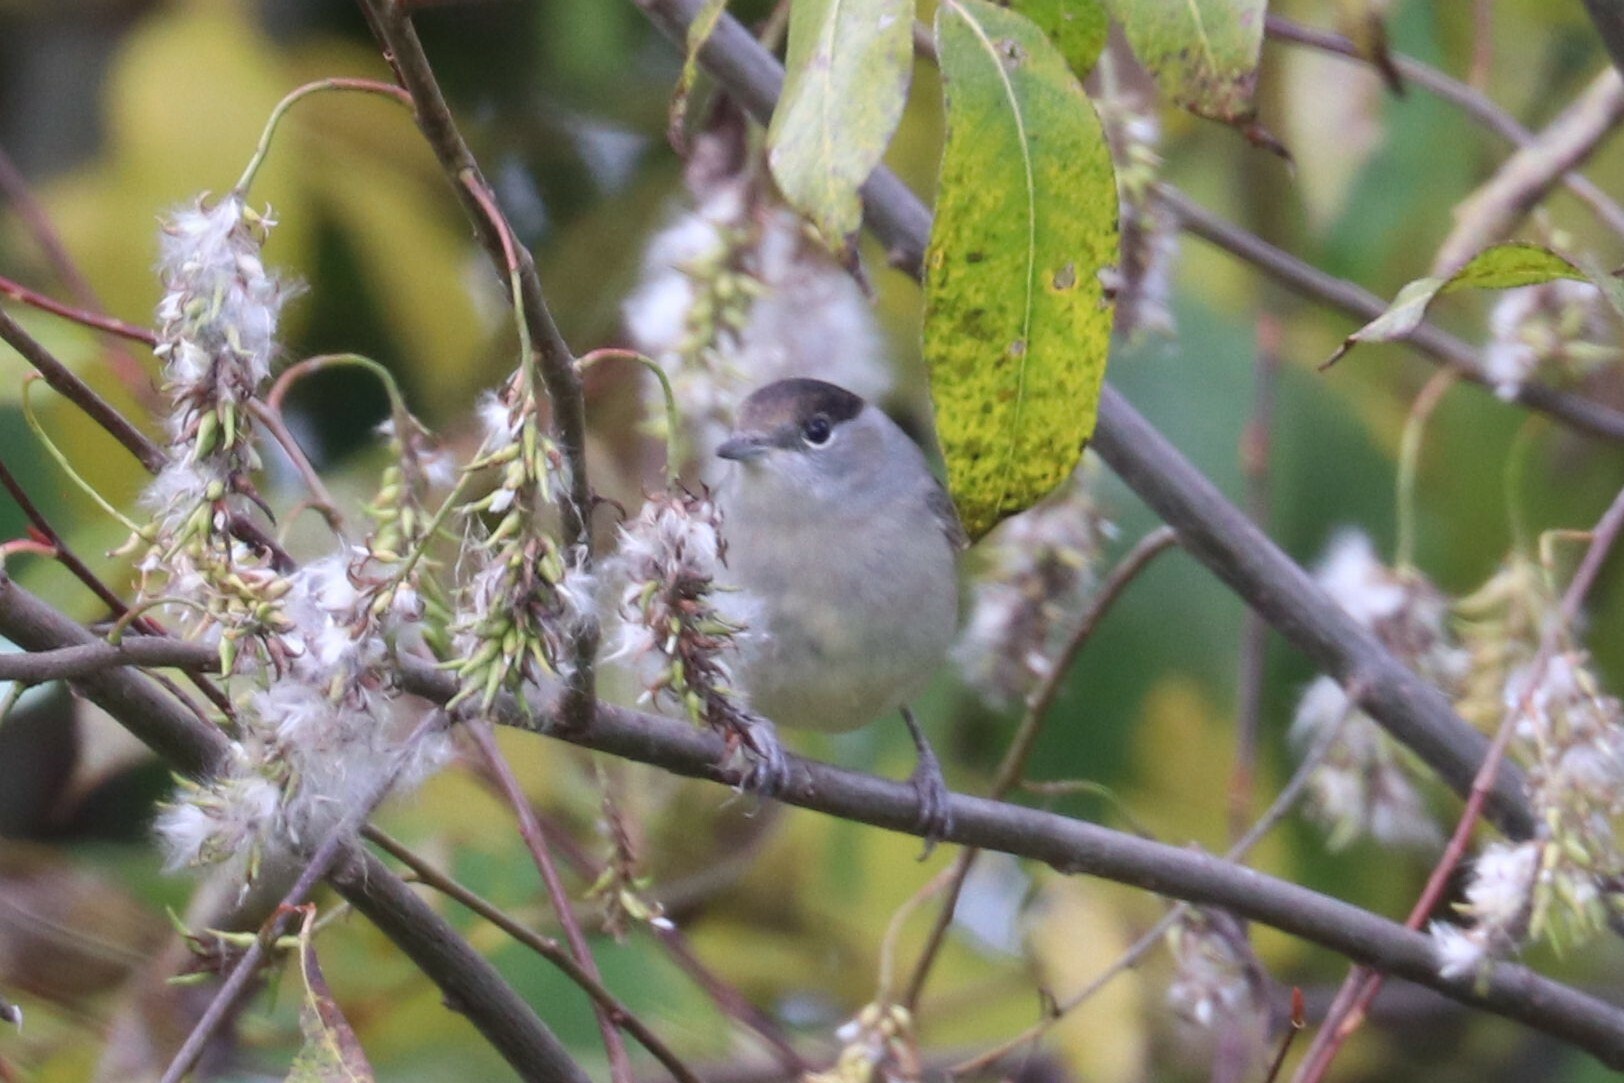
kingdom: Animalia
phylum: Chordata
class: Aves
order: Passeriformes
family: Sylviidae
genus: Sylvia
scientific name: Sylvia atricapilla
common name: Eurasian blackcap
